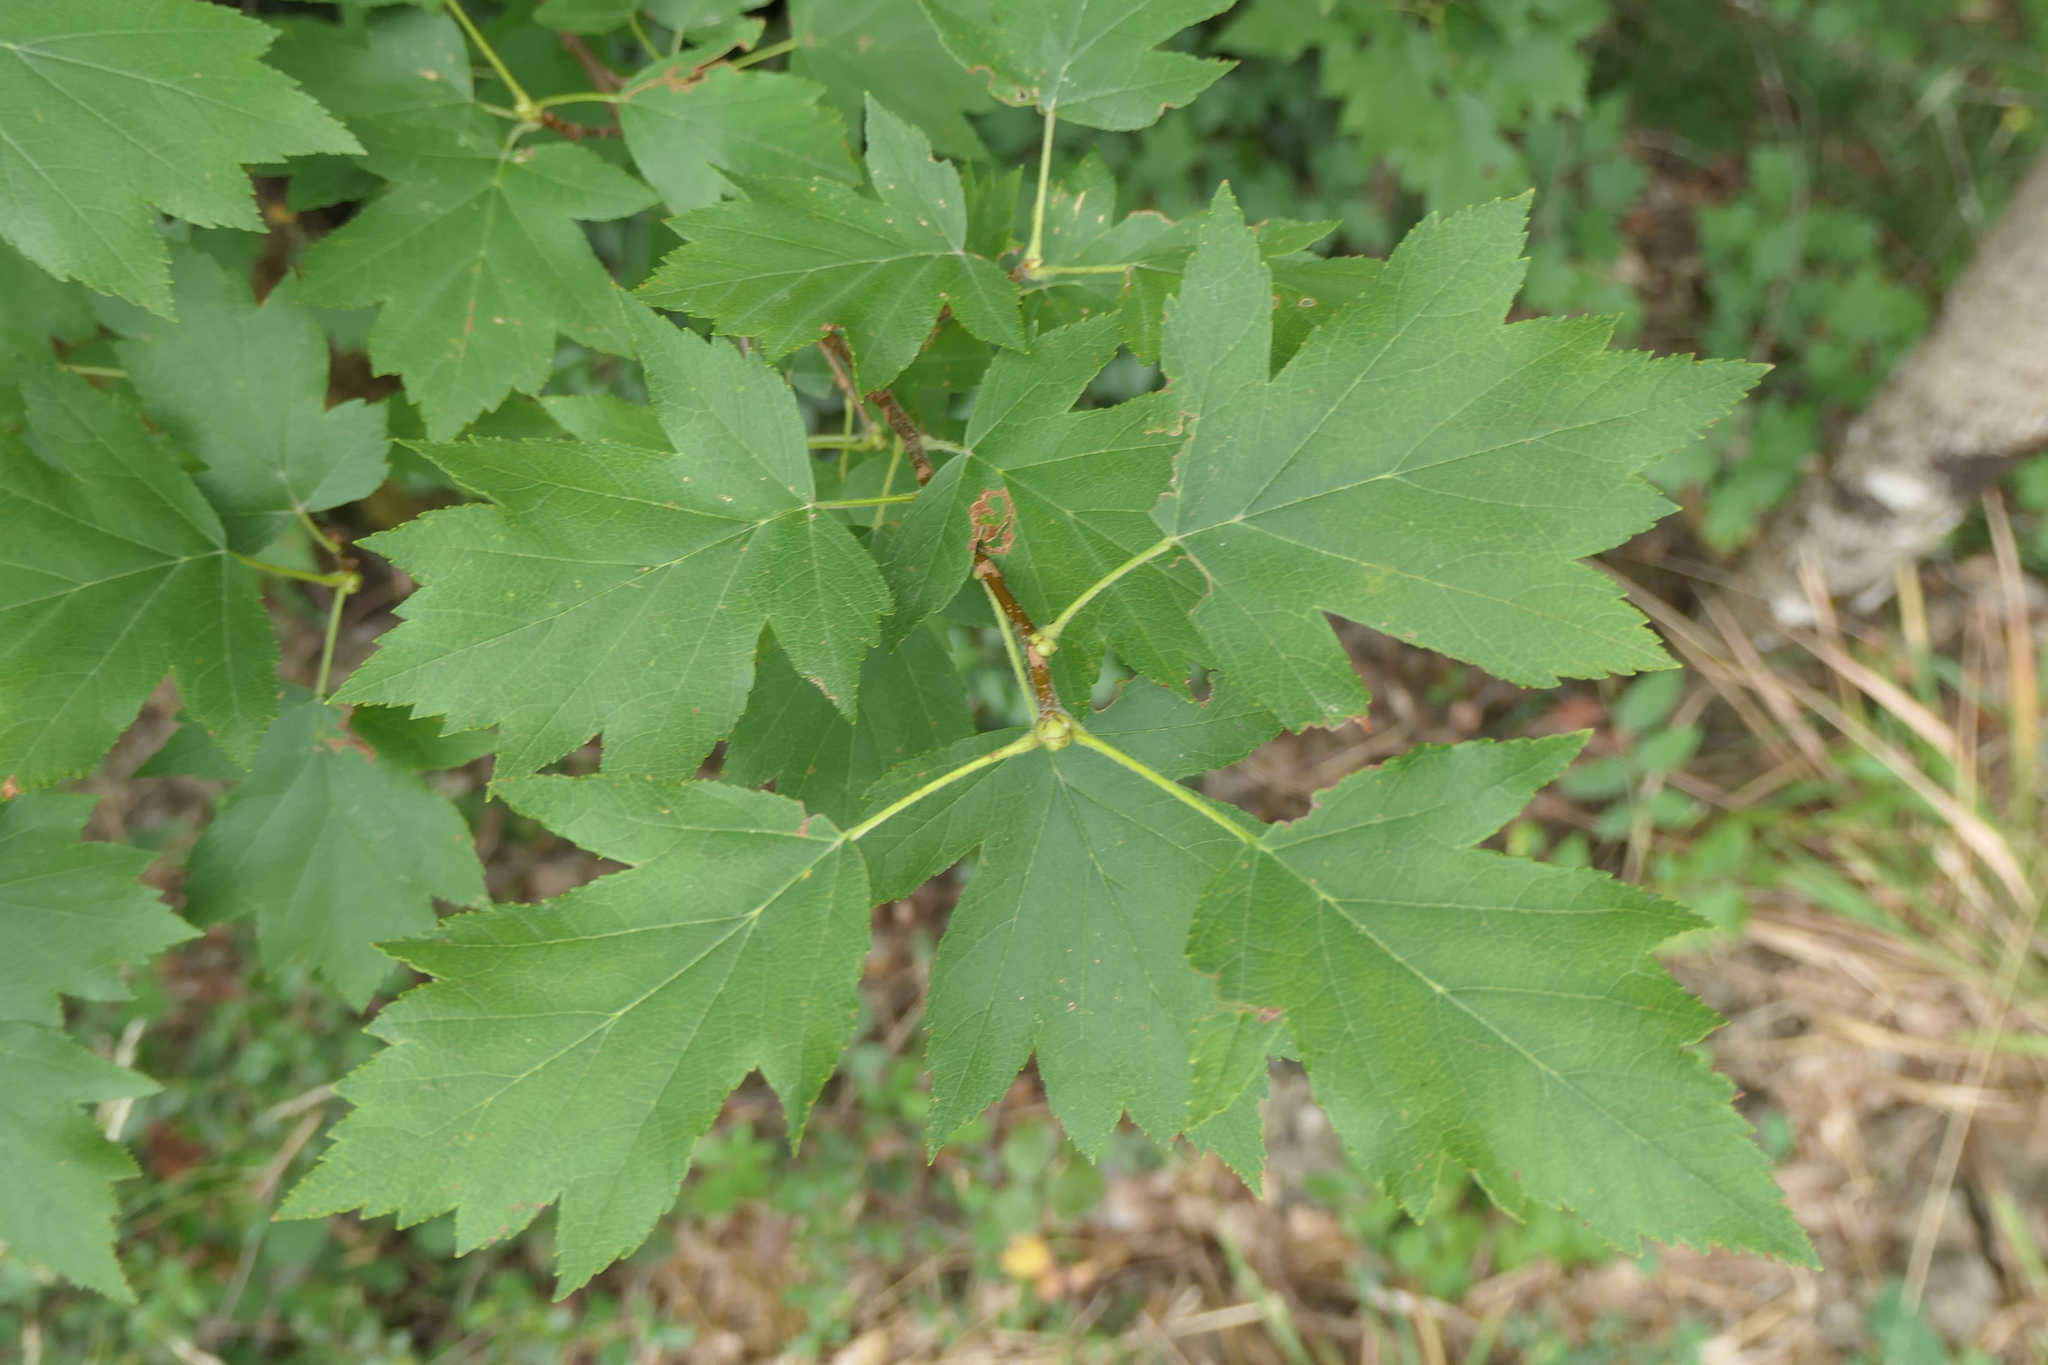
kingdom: Plantae
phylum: Tracheophyta
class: Magnoliopsida
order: Rosales
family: Rosaceae
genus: Torminalis
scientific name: Torminalis glaberrima
